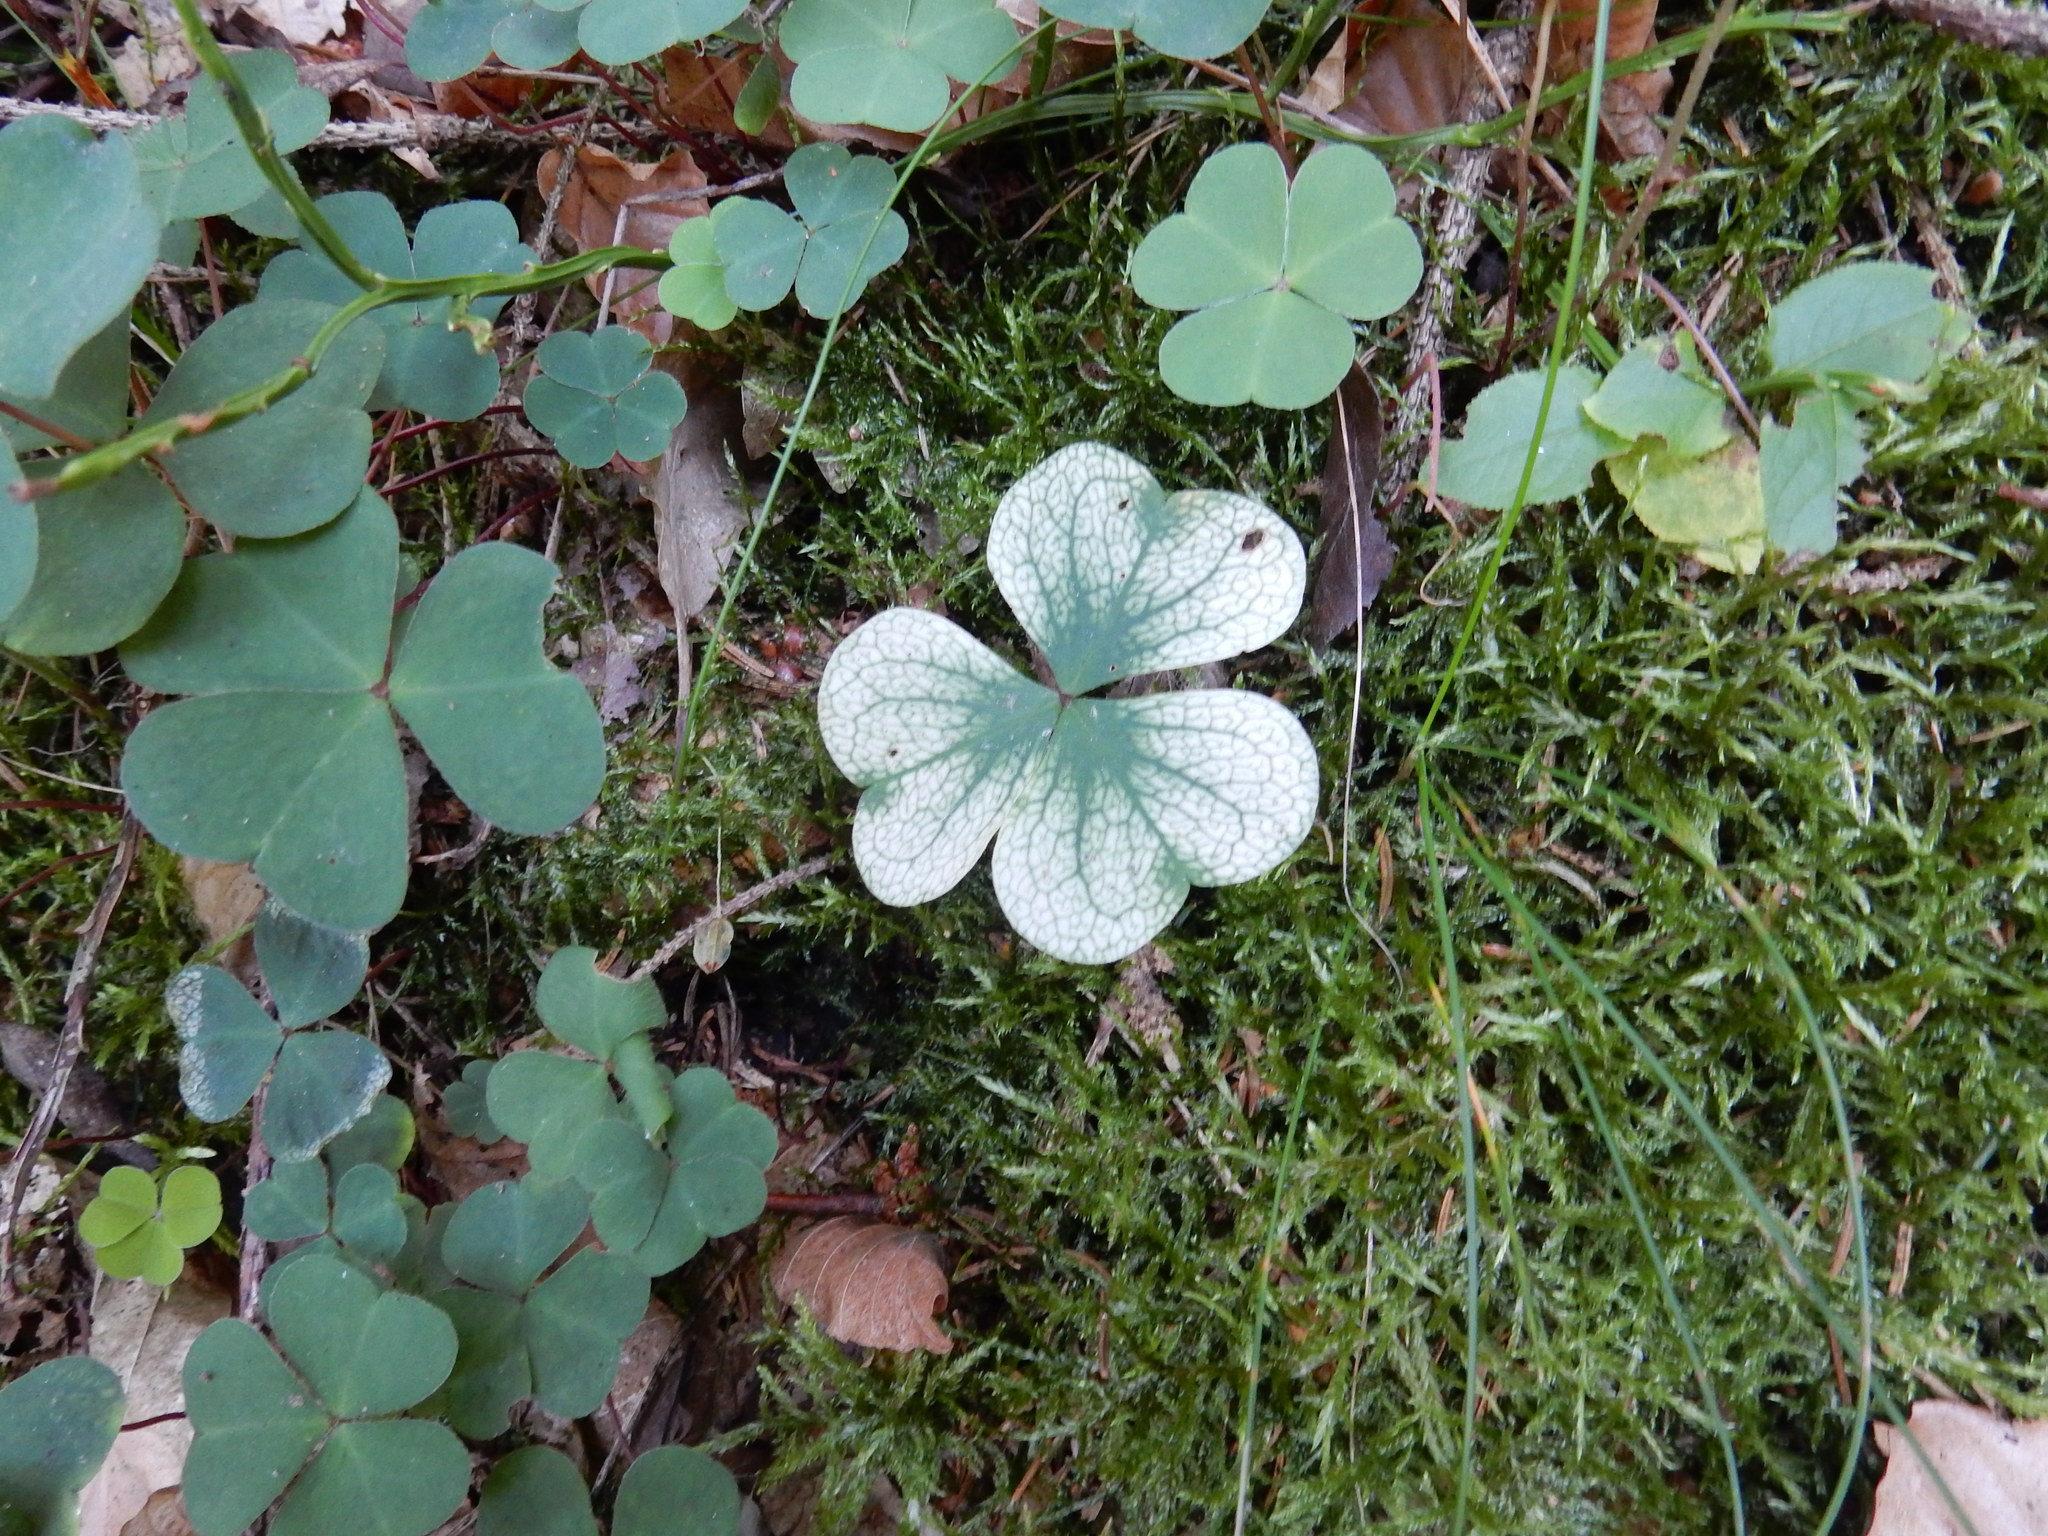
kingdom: Plantae
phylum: Tracheophyta
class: Magnoliopsida
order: Oxalidales
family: Oxalidaceae
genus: Oxalis
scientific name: Oxalis acetosella
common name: Wood-sorrel
